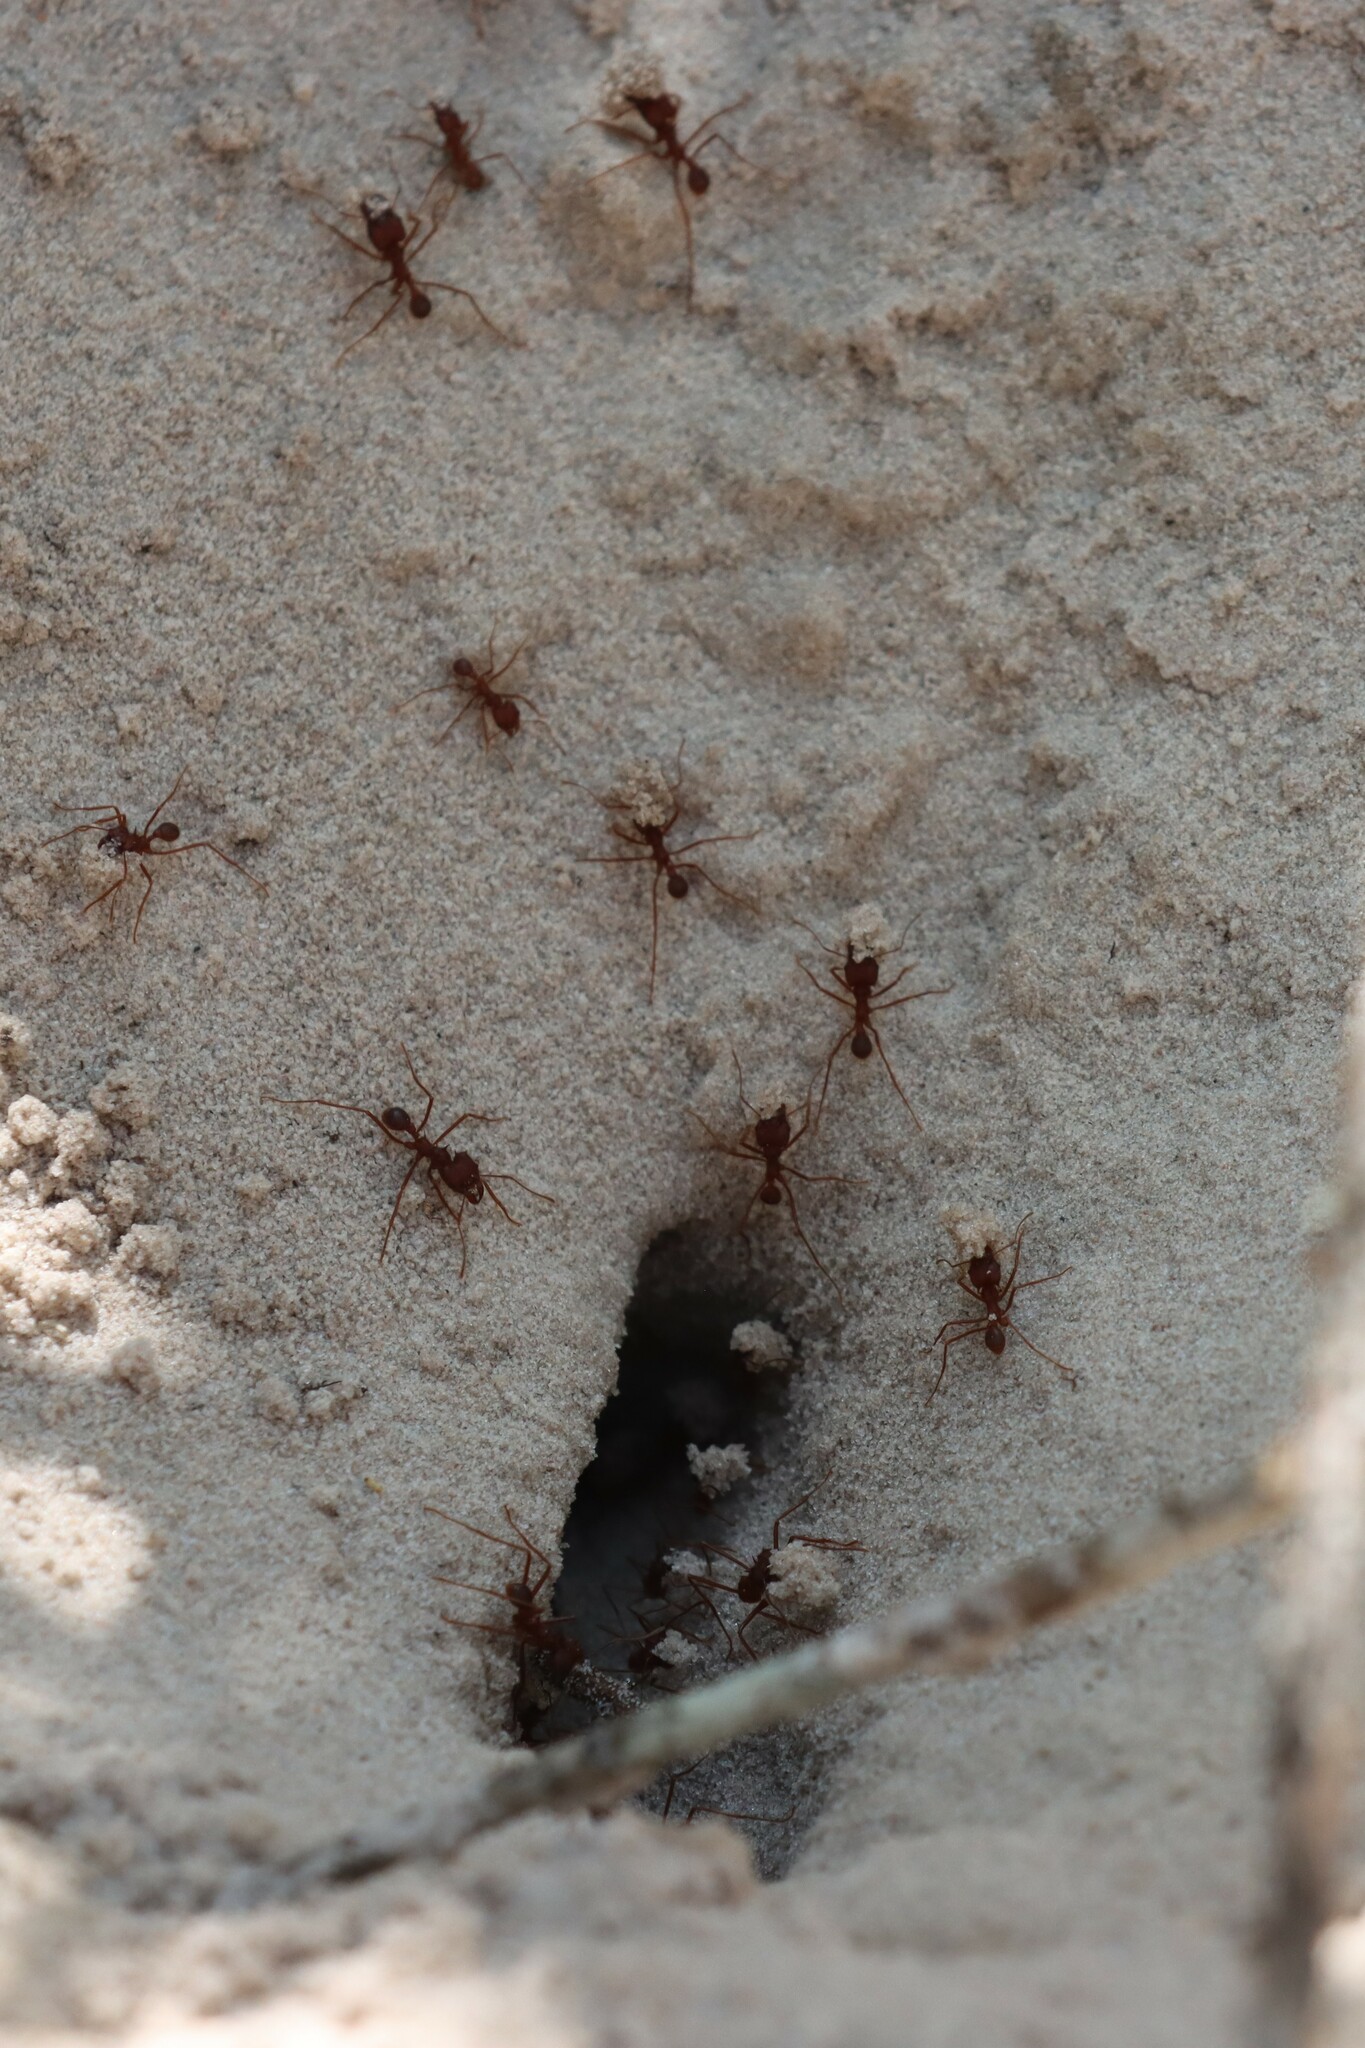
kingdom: Animalia
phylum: Arthropoda
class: Insecta
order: Hymenoptera
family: Formicidae
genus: Atta
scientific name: Atta texana
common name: Texas leafcutting ant
